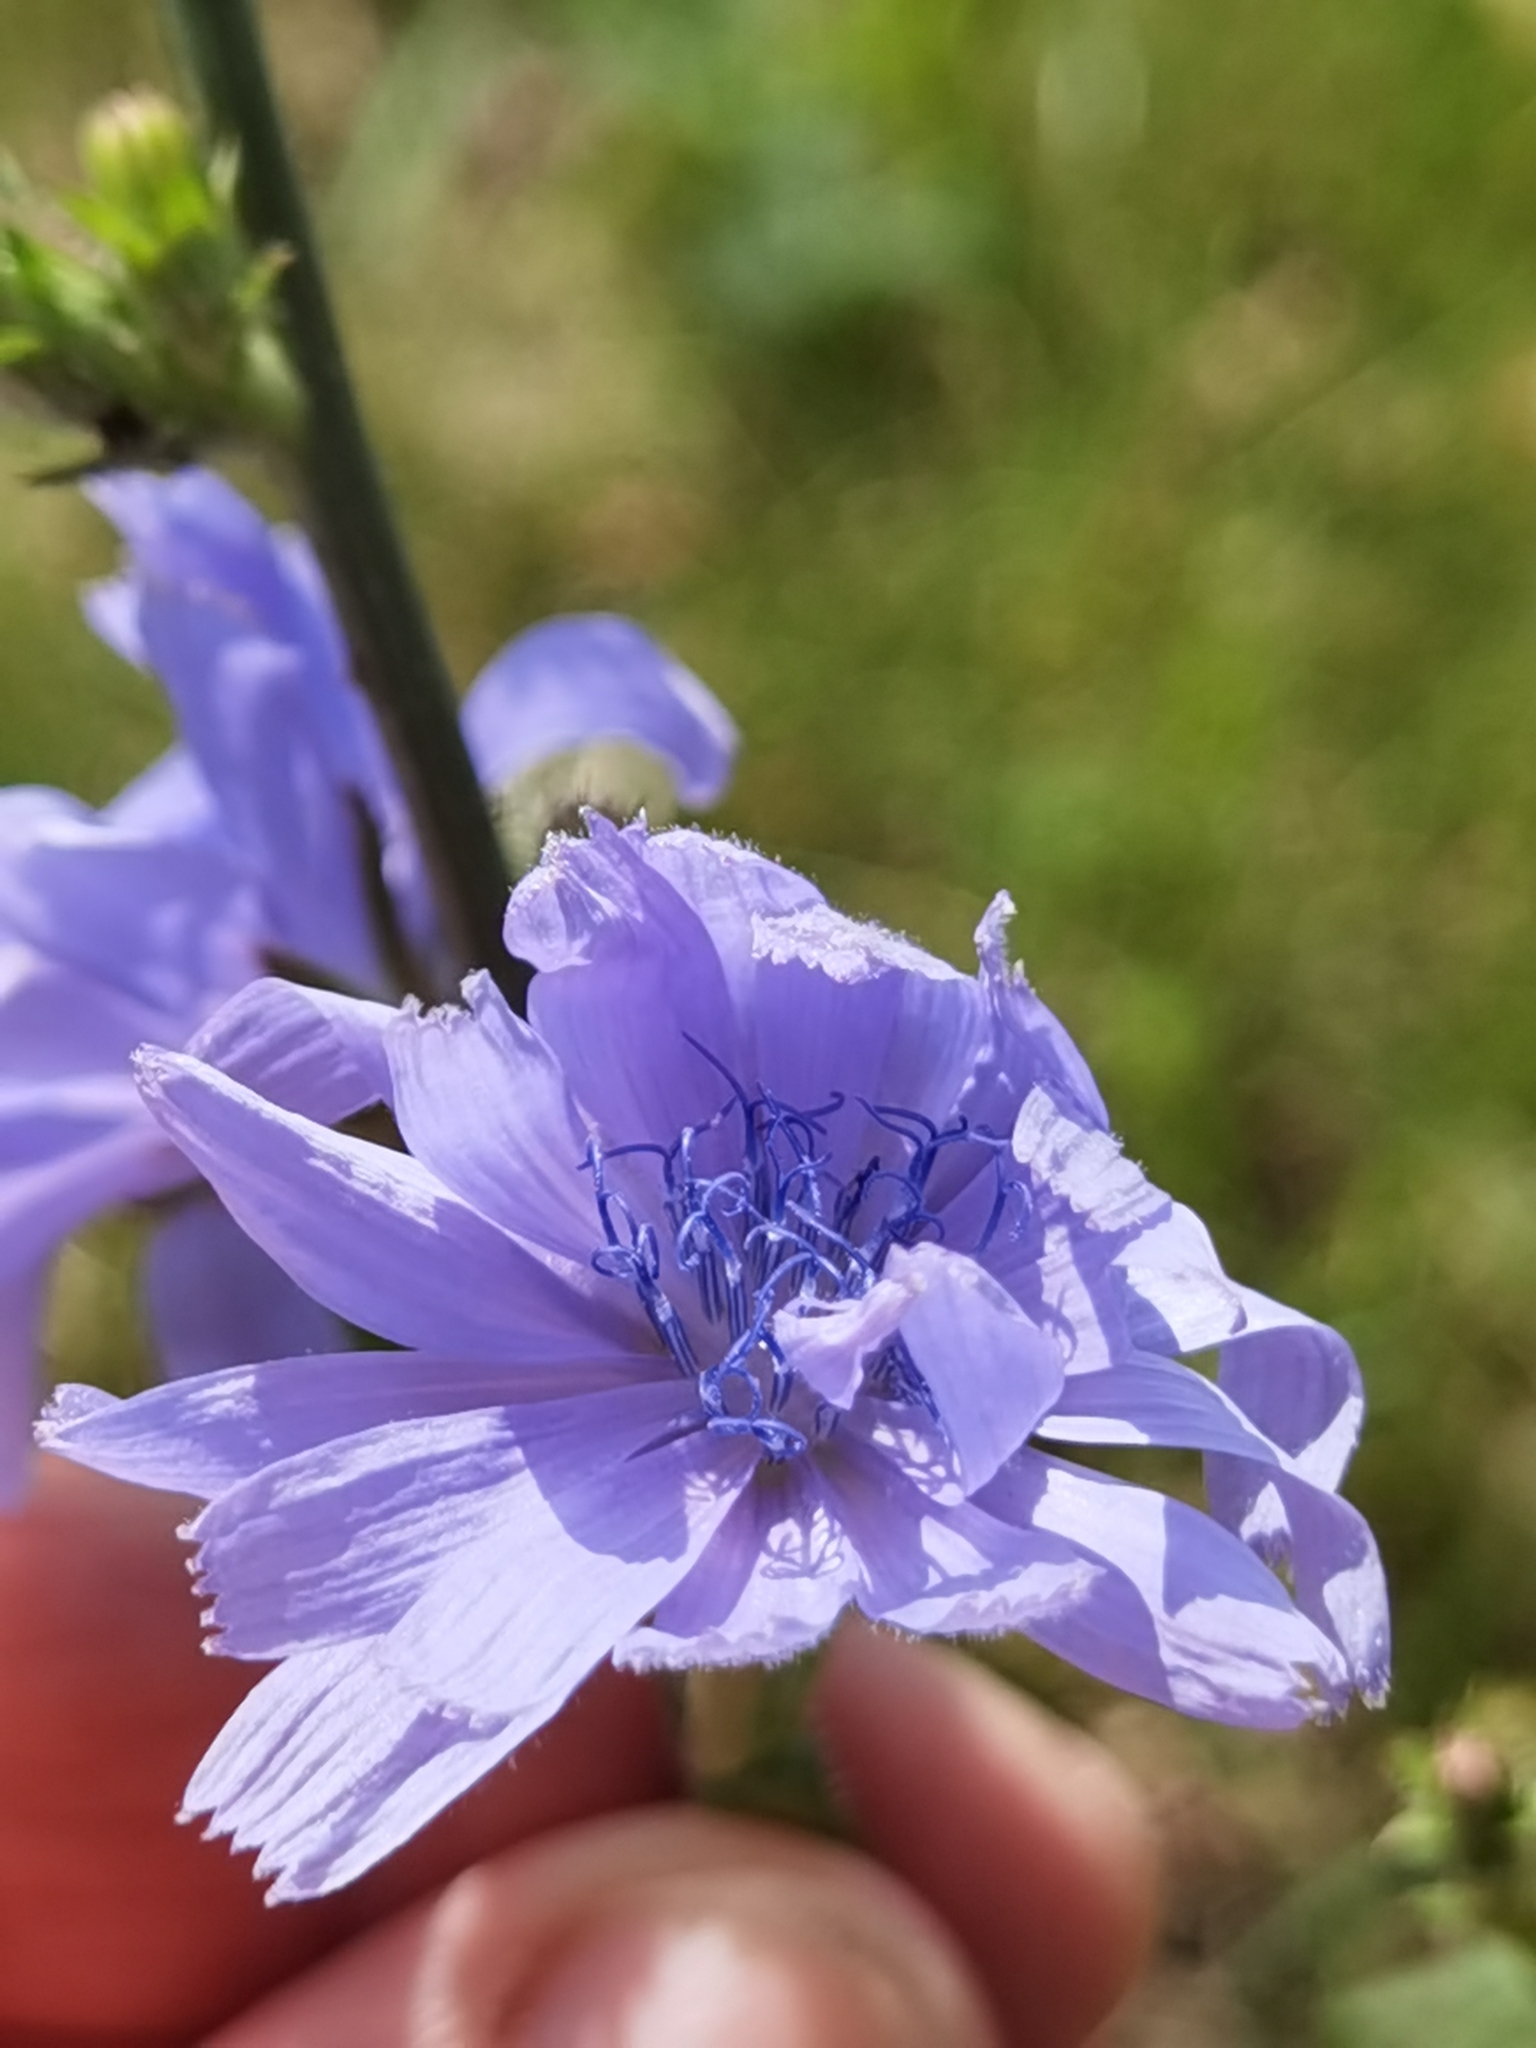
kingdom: Plantae
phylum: Tracheophyta
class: Magnoliopsida
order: Asterales
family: Asteraceae
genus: Cichorium
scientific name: Cichorium intybus
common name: Chicory
